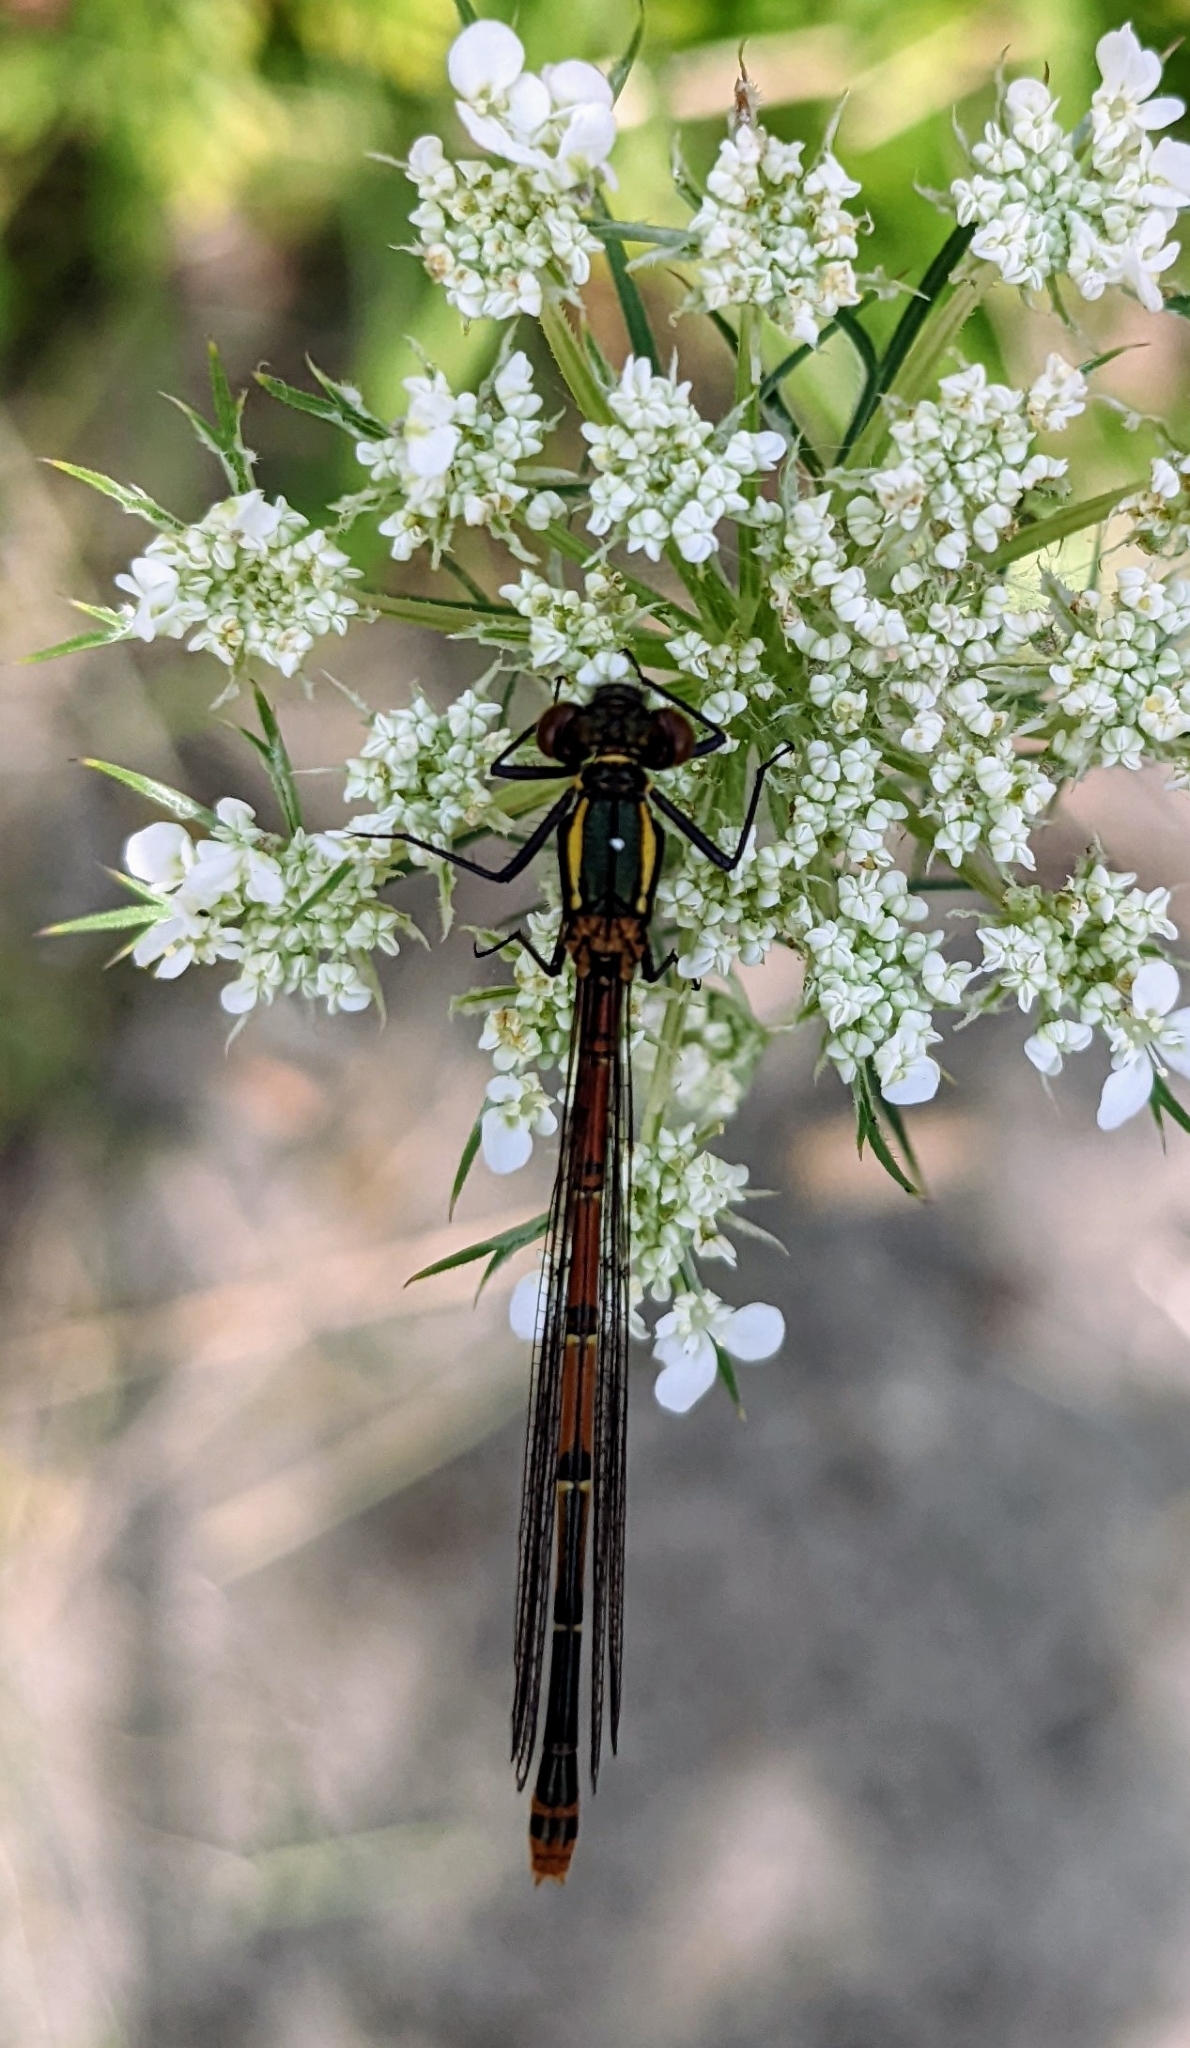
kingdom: Animalia
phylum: Arthropoda
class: Insecta
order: Odonata
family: Coenagrionidae
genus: Pyrrhosoma
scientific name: Pyrrhosoma nymphula
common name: Large red damsel
